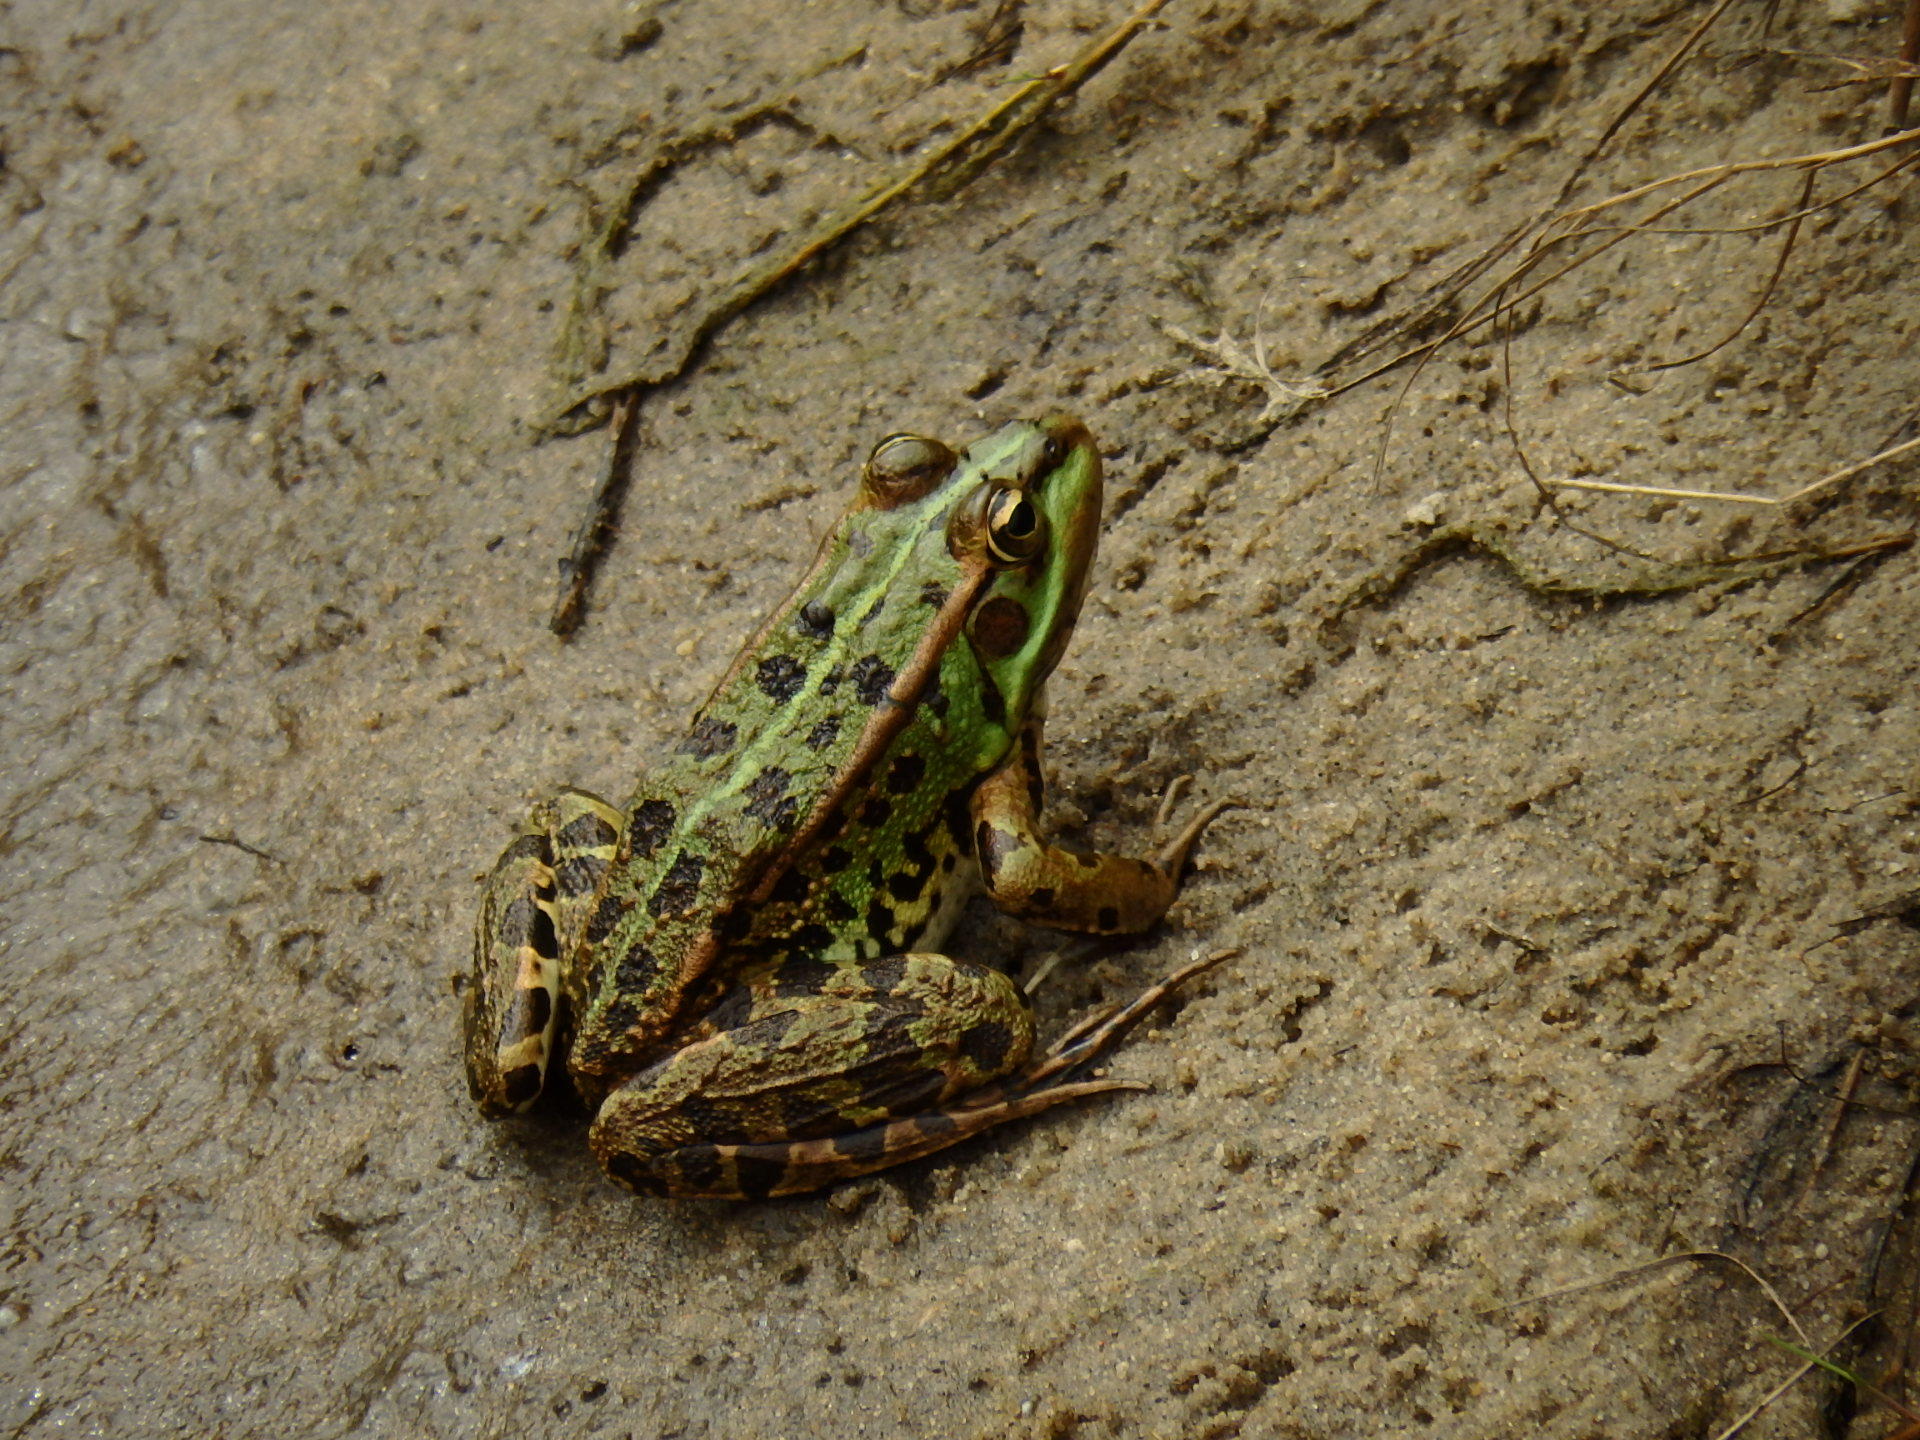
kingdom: Animalia
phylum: Chordata
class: Amphibia
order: Anura
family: Ranidae
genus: Pelophylax
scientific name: Pelophylax perezi
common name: Perez's frog
